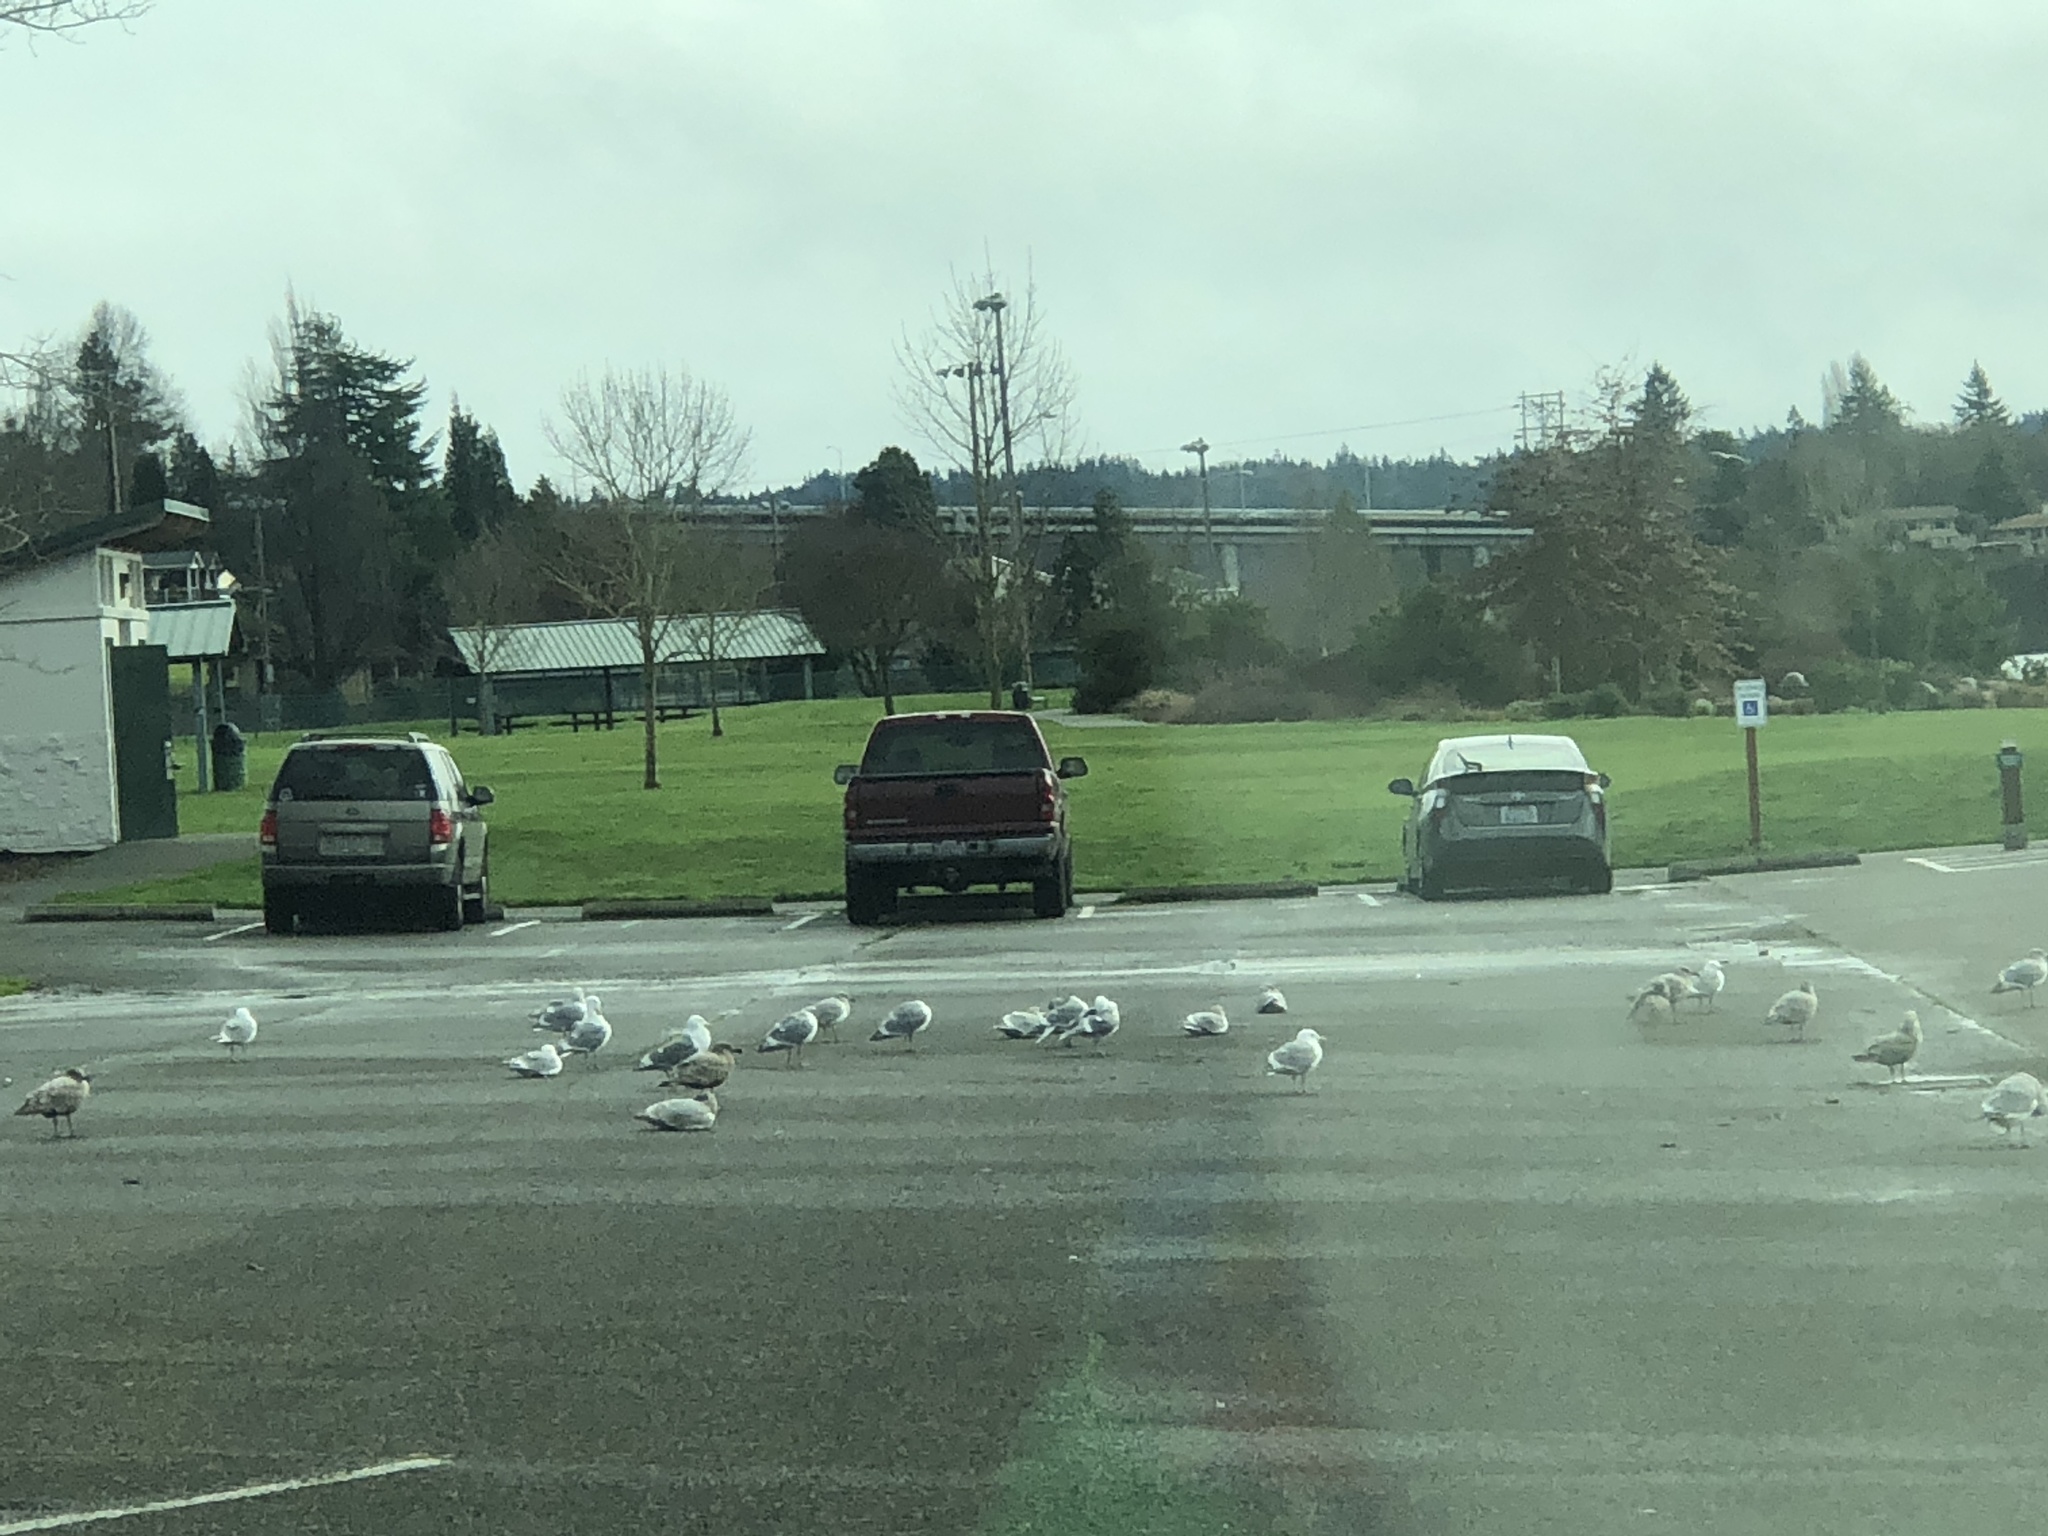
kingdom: Animalia
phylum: Chordata
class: Aves
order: Charadriiformes
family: Laridae
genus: Larus
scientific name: Larus
